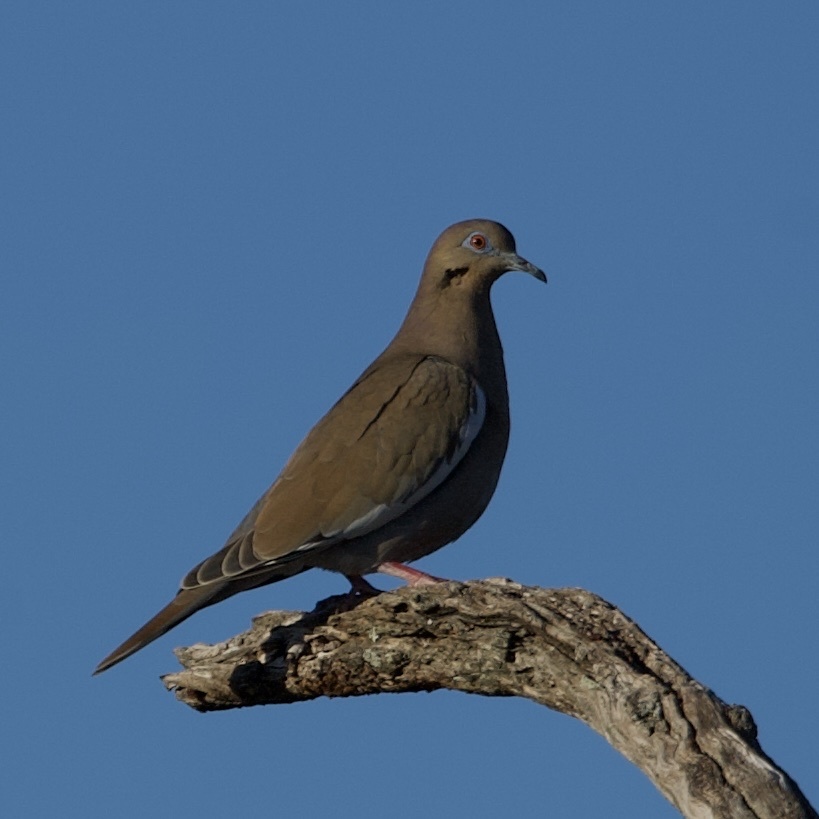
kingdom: Animalia
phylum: Chordata
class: Aves
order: Columbiformes
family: Columbidae
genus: Zenaida
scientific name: Zenaida asiatica
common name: White-winged dove
